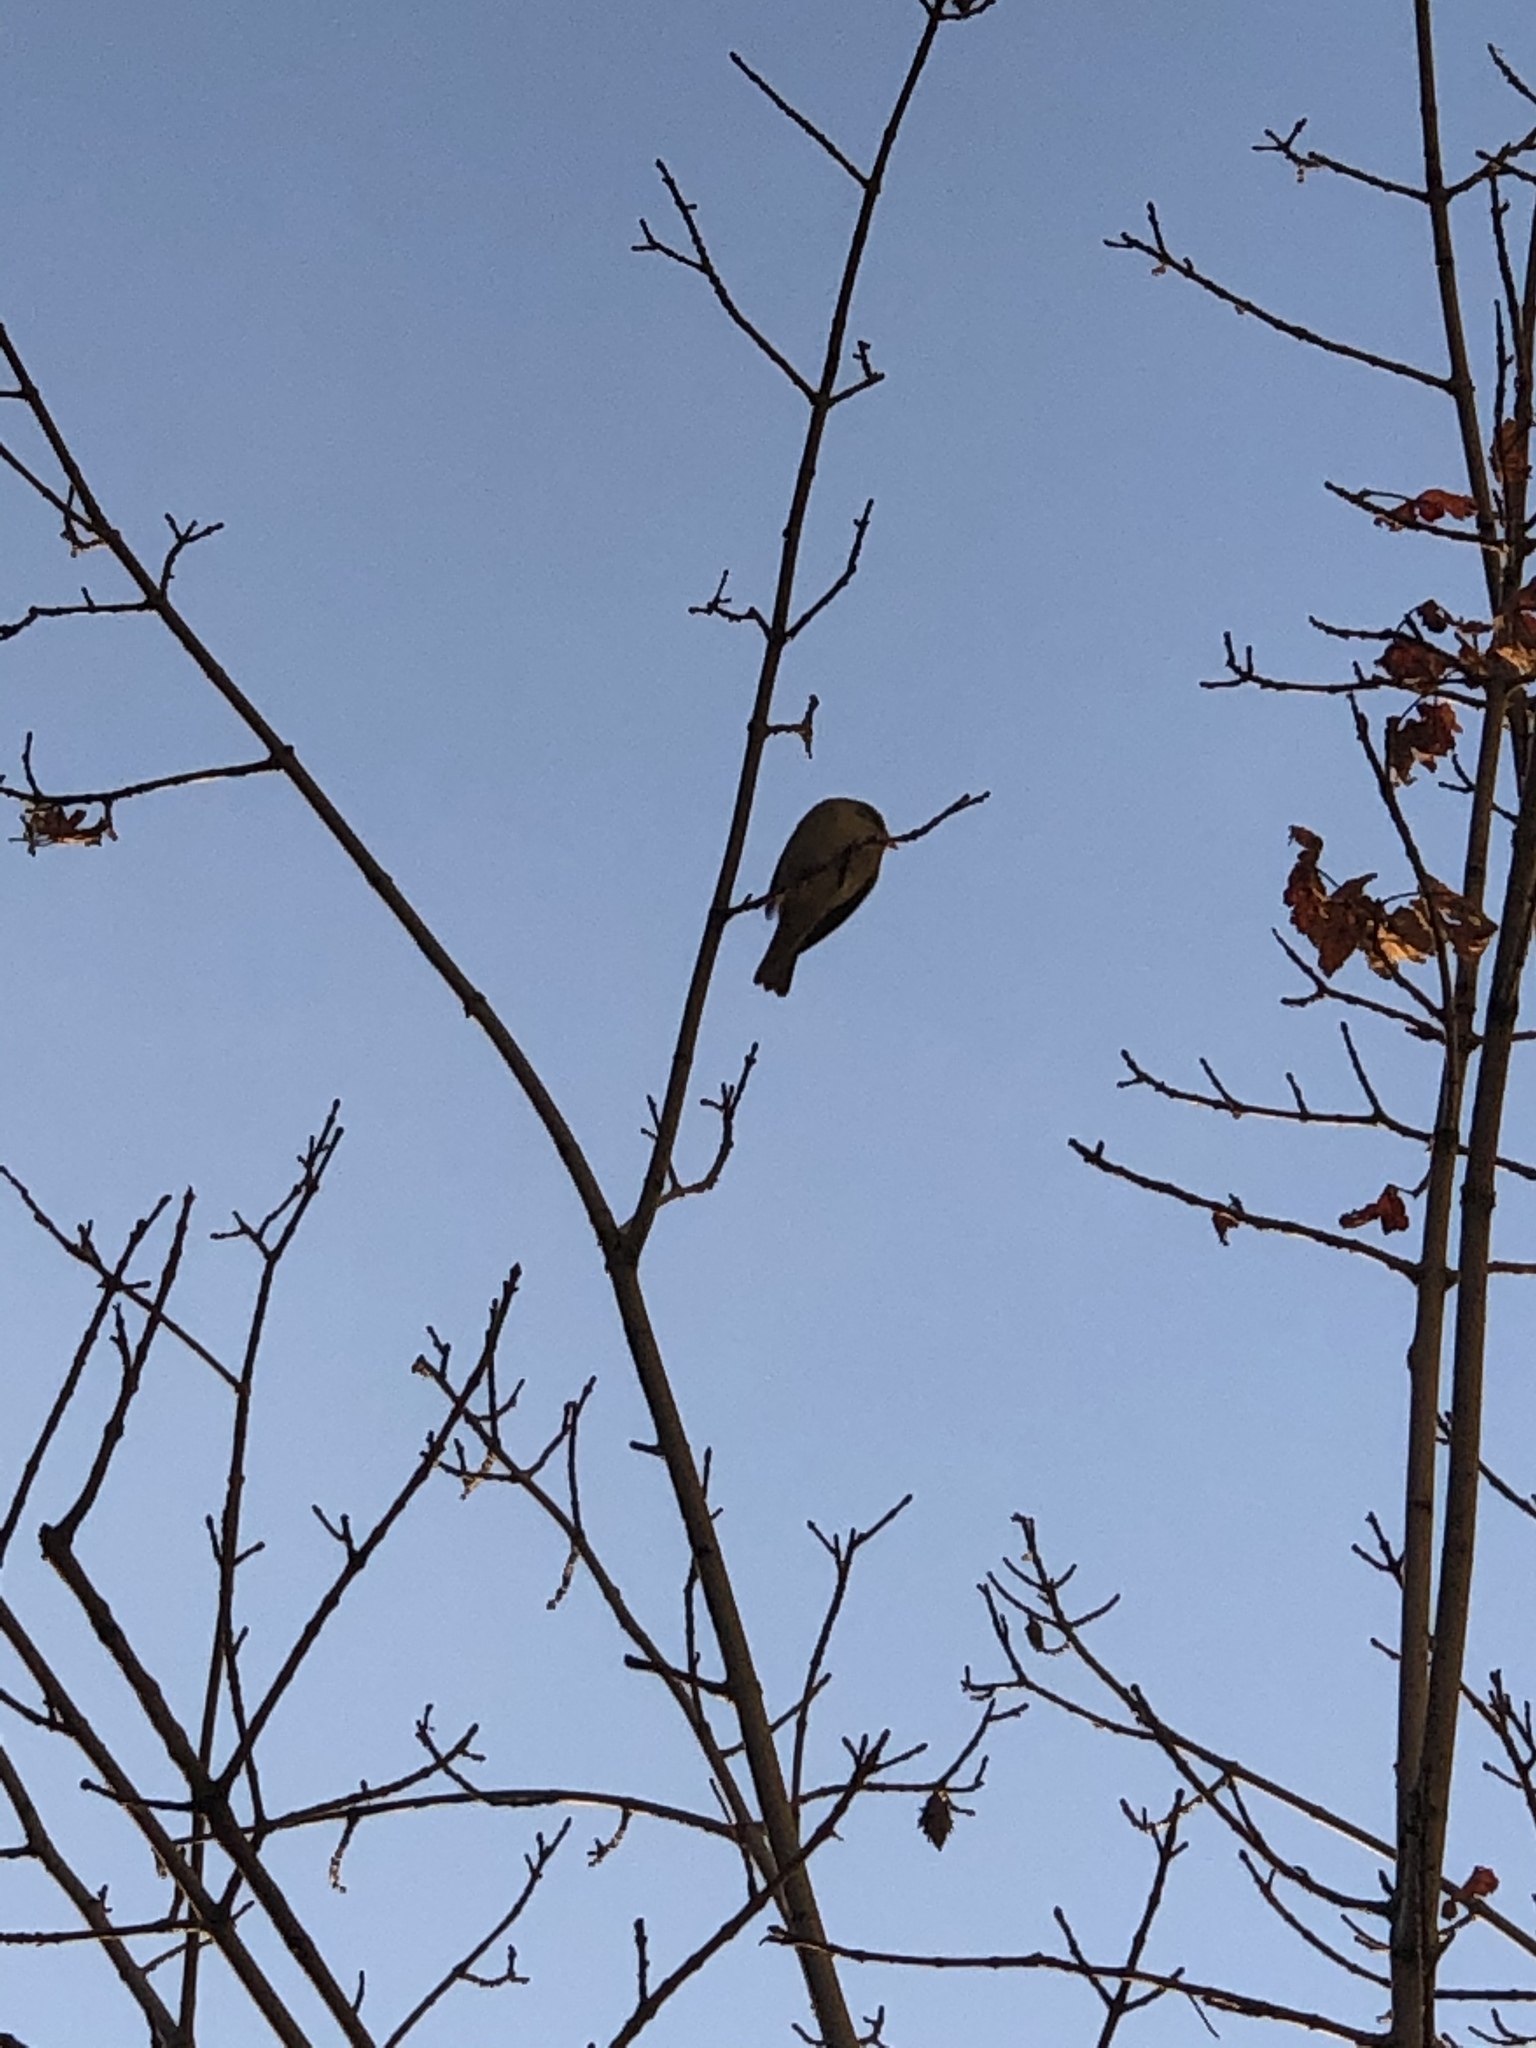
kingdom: Animalia
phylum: Chordata
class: Aves
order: Passeriformes
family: Passeridae
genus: Passer
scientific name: Passer domesticus
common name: House sparrow
